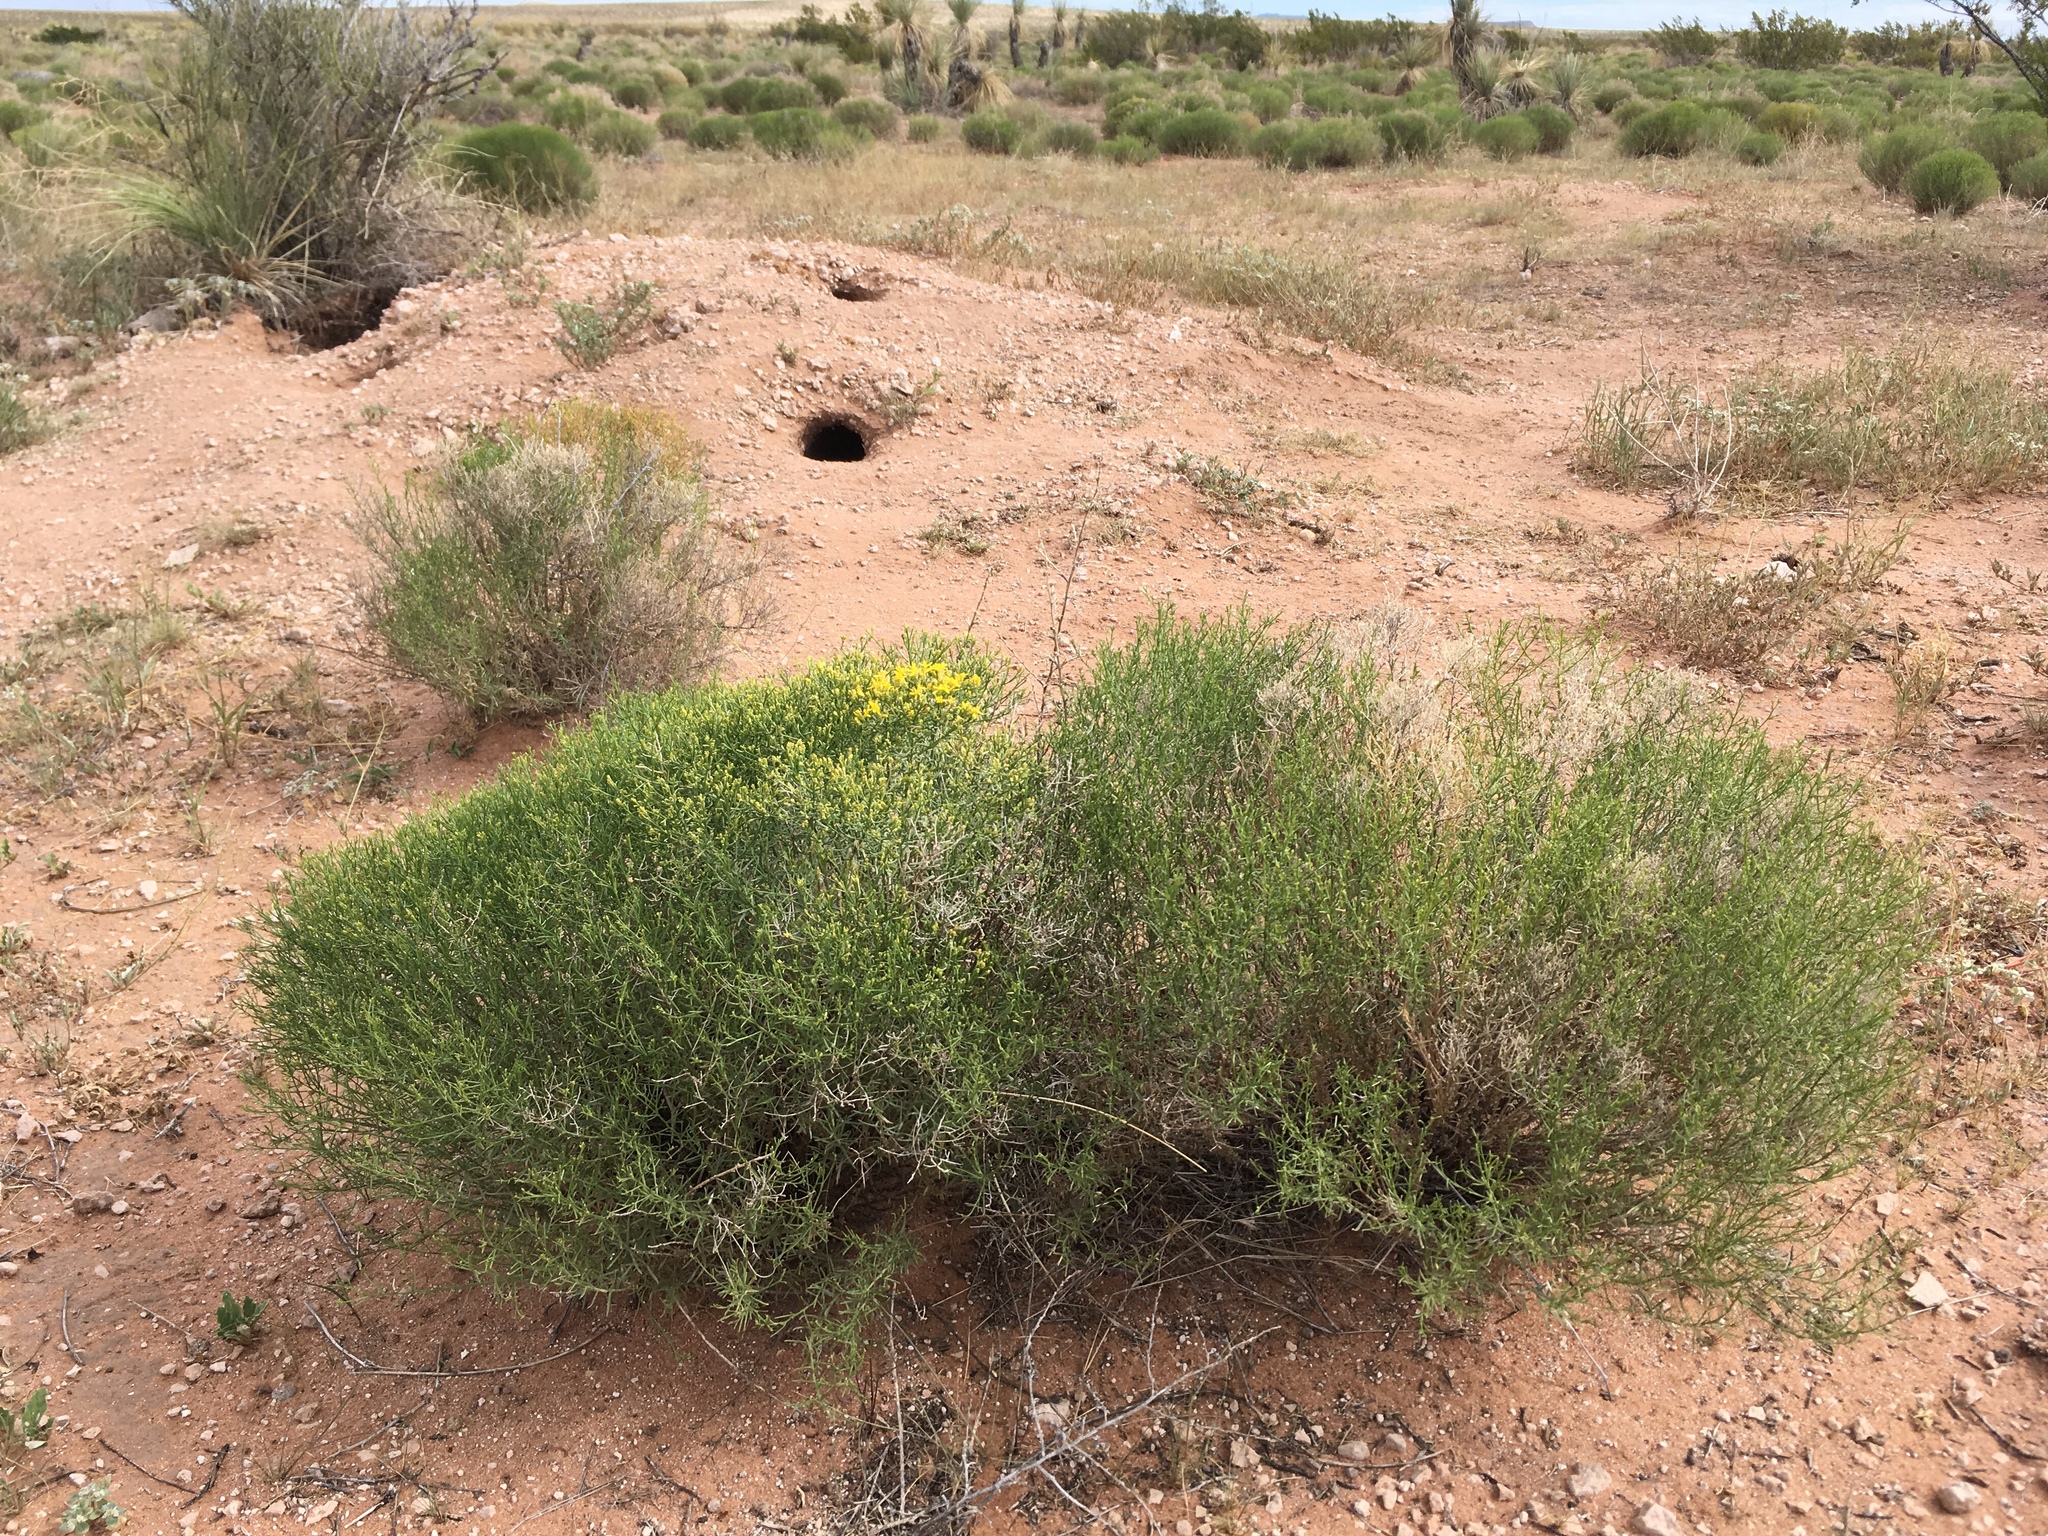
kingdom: Plantae
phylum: Tracheophyta
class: Magnoliopsida
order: Asterales
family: Asteraceae
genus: Gutierrezia
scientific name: Gutierrezia sarothrae
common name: Broom snakeweed
